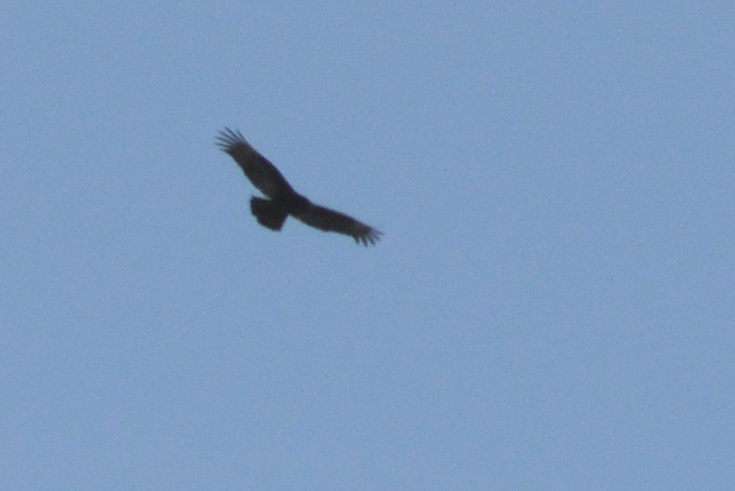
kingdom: Animalia
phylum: Chordata
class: Aves
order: Accipitriformes
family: Cathartidae
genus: Cathartes
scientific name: Cathartes aura
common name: Turkey vulture
